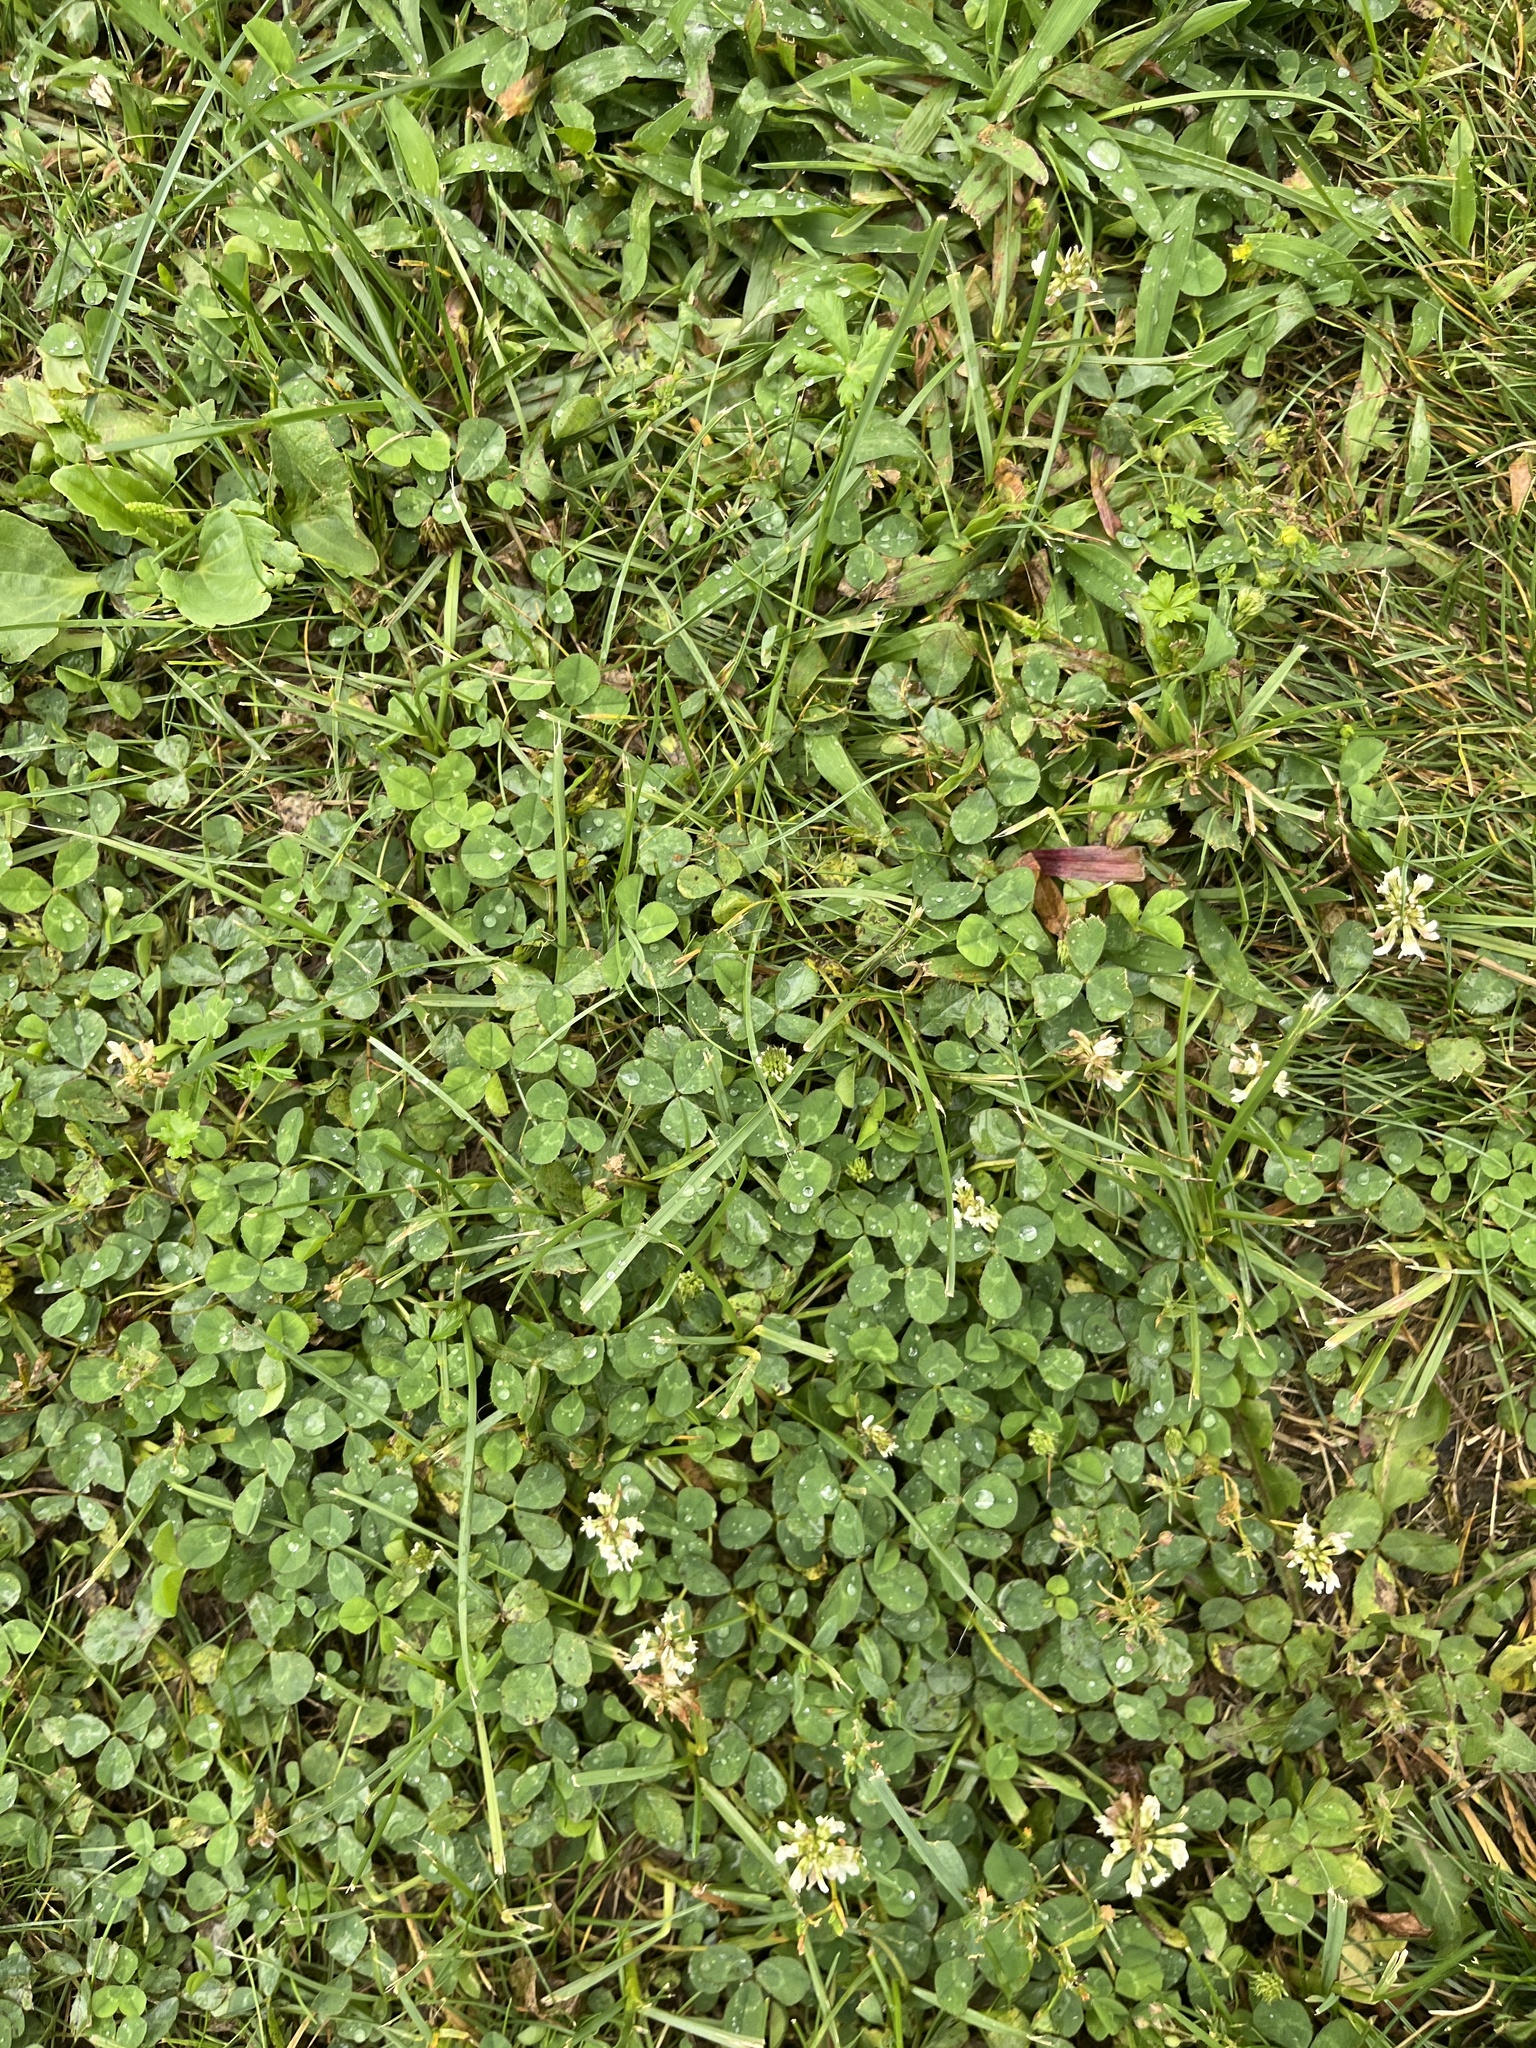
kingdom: Plantae
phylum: Tracheophyta
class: Magnoliopsida
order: Fabales
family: Fabaceae
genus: Trifolium
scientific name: Trifolium repens
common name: White clover
